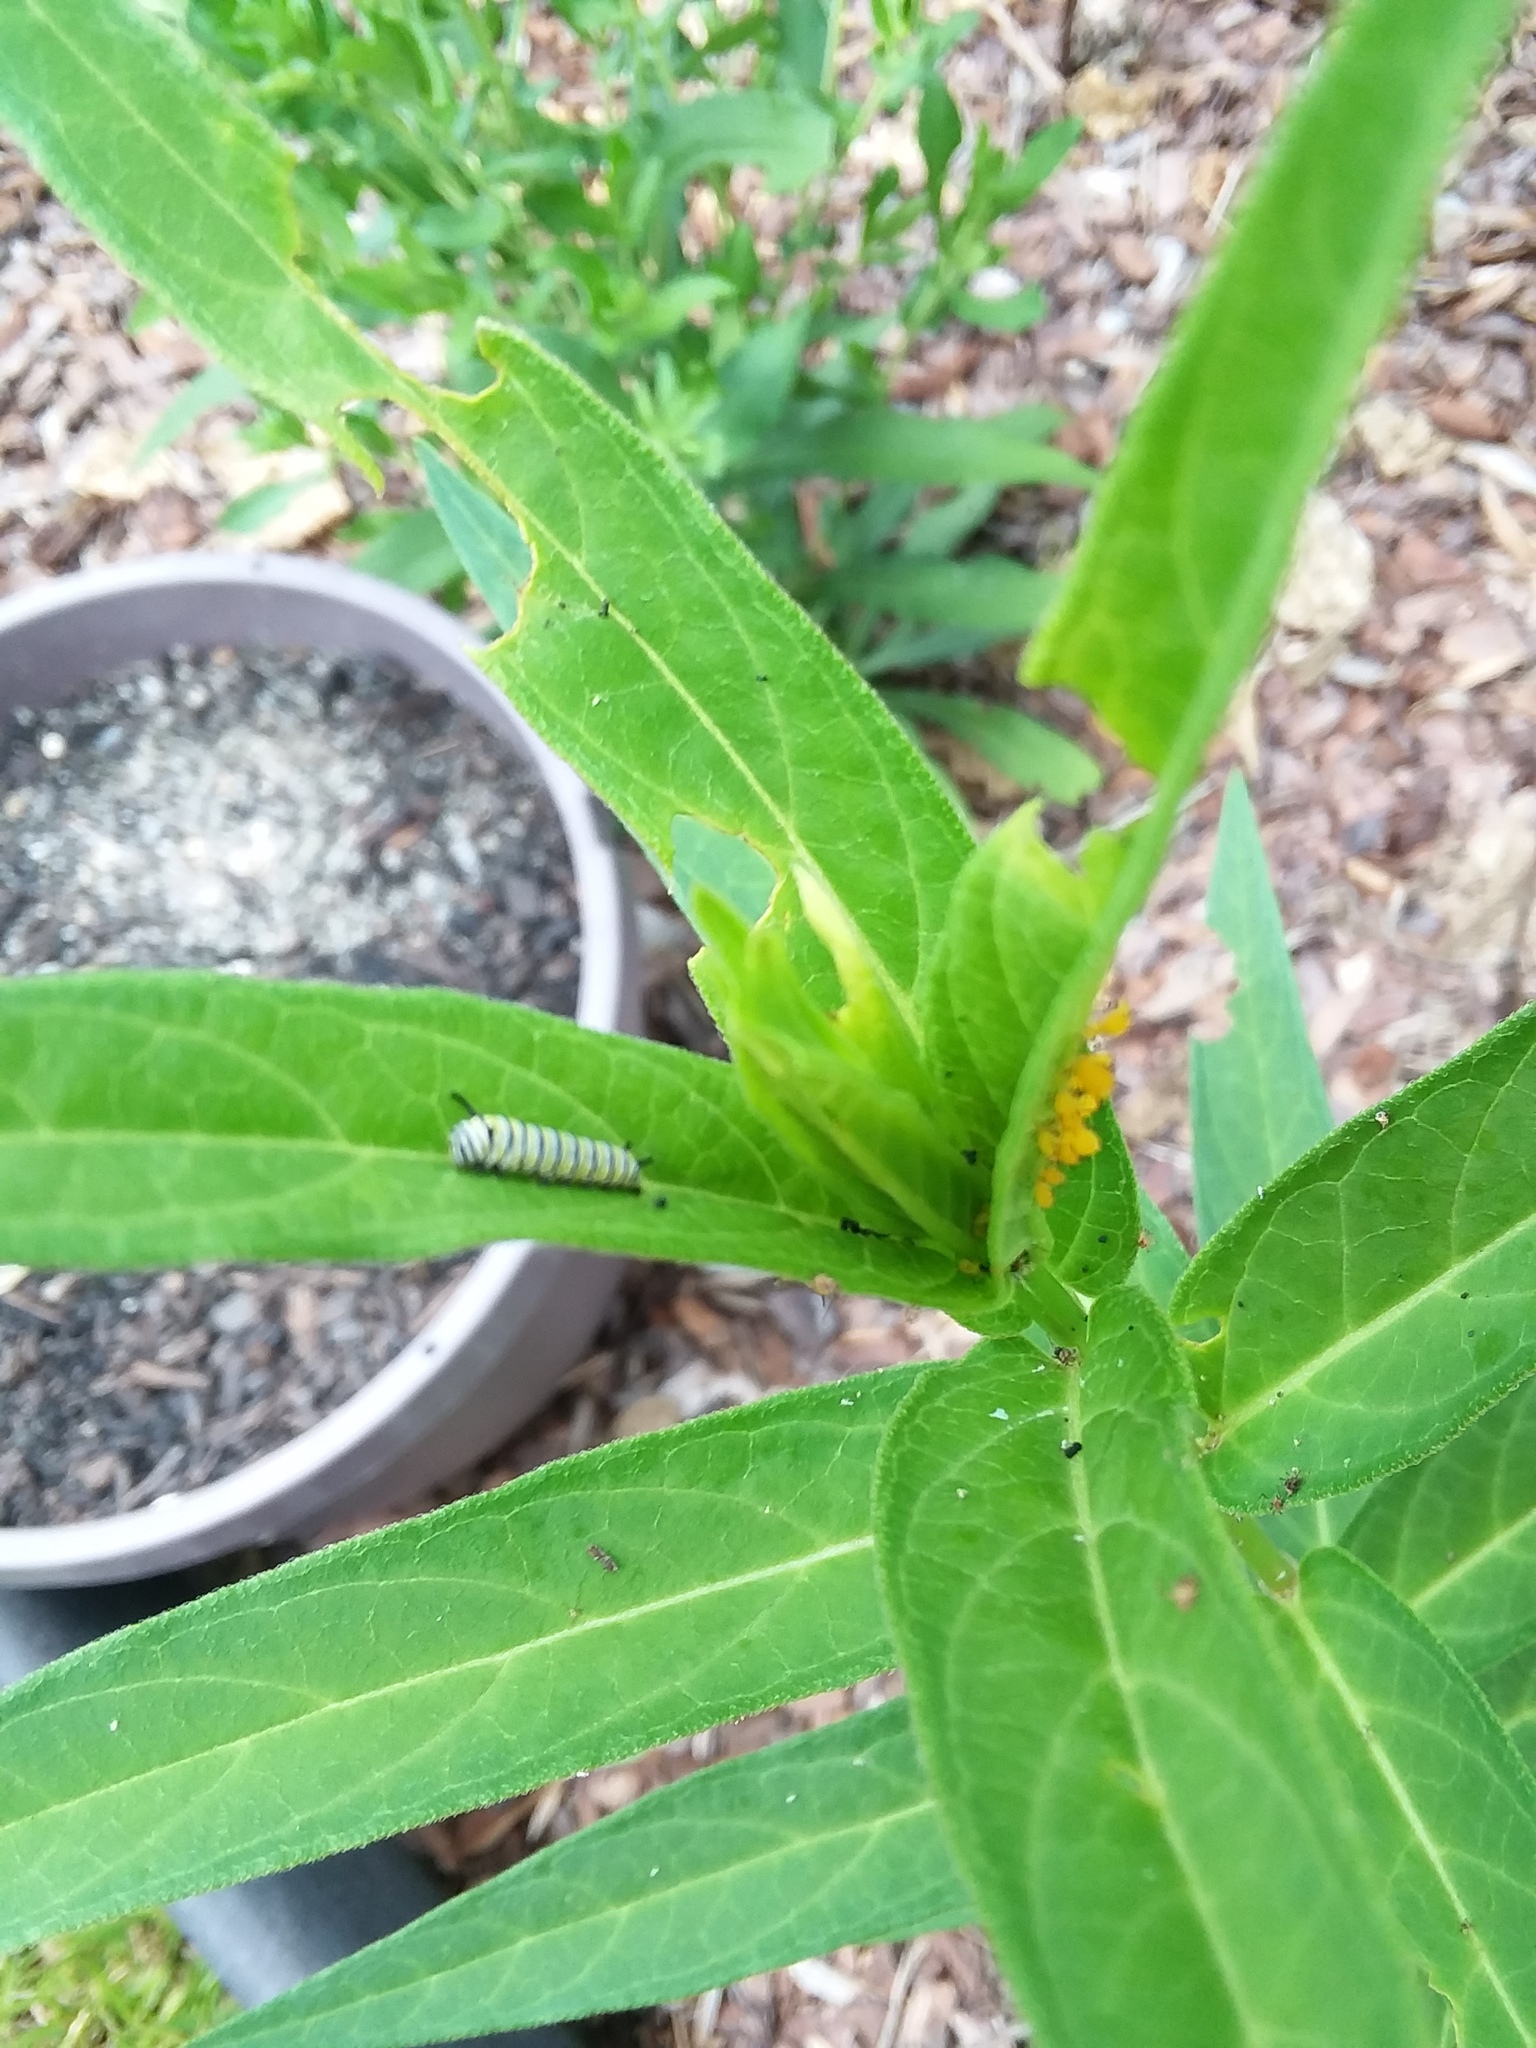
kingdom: Animalia
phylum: Arthropoda
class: Insecta
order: Lepidoptera
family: Nymphalidae
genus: Danaus
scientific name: Danaus plexippus
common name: Monarch
